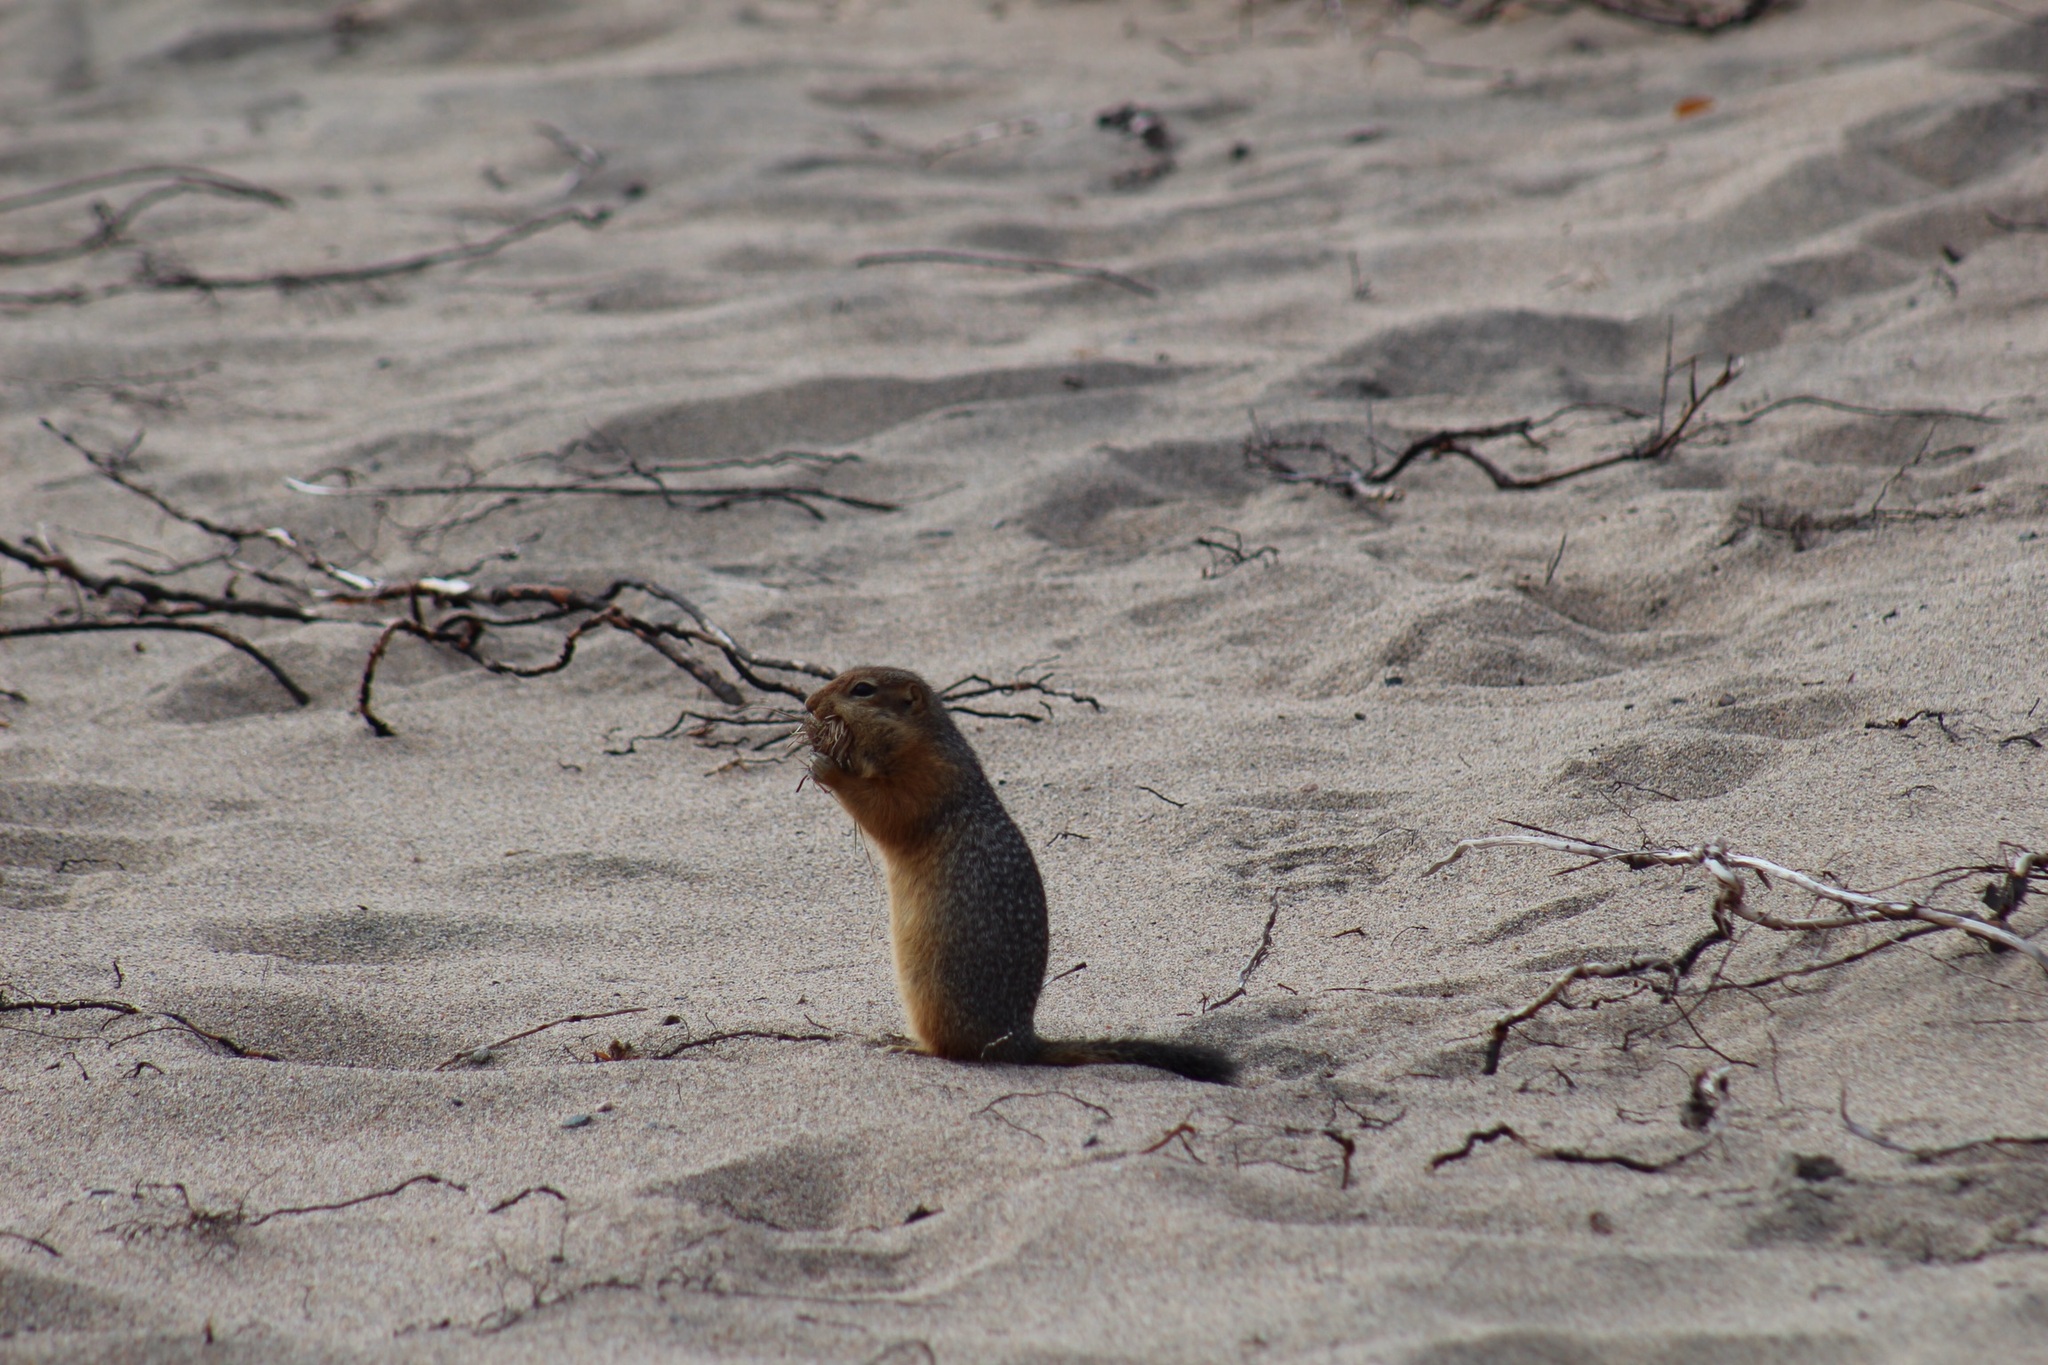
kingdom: Animalia
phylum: Chordata
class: Mammalia
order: Rodentia
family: Sciuridae
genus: Urocitellus
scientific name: Urocitellus parryii
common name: Arctic ground squirrel
